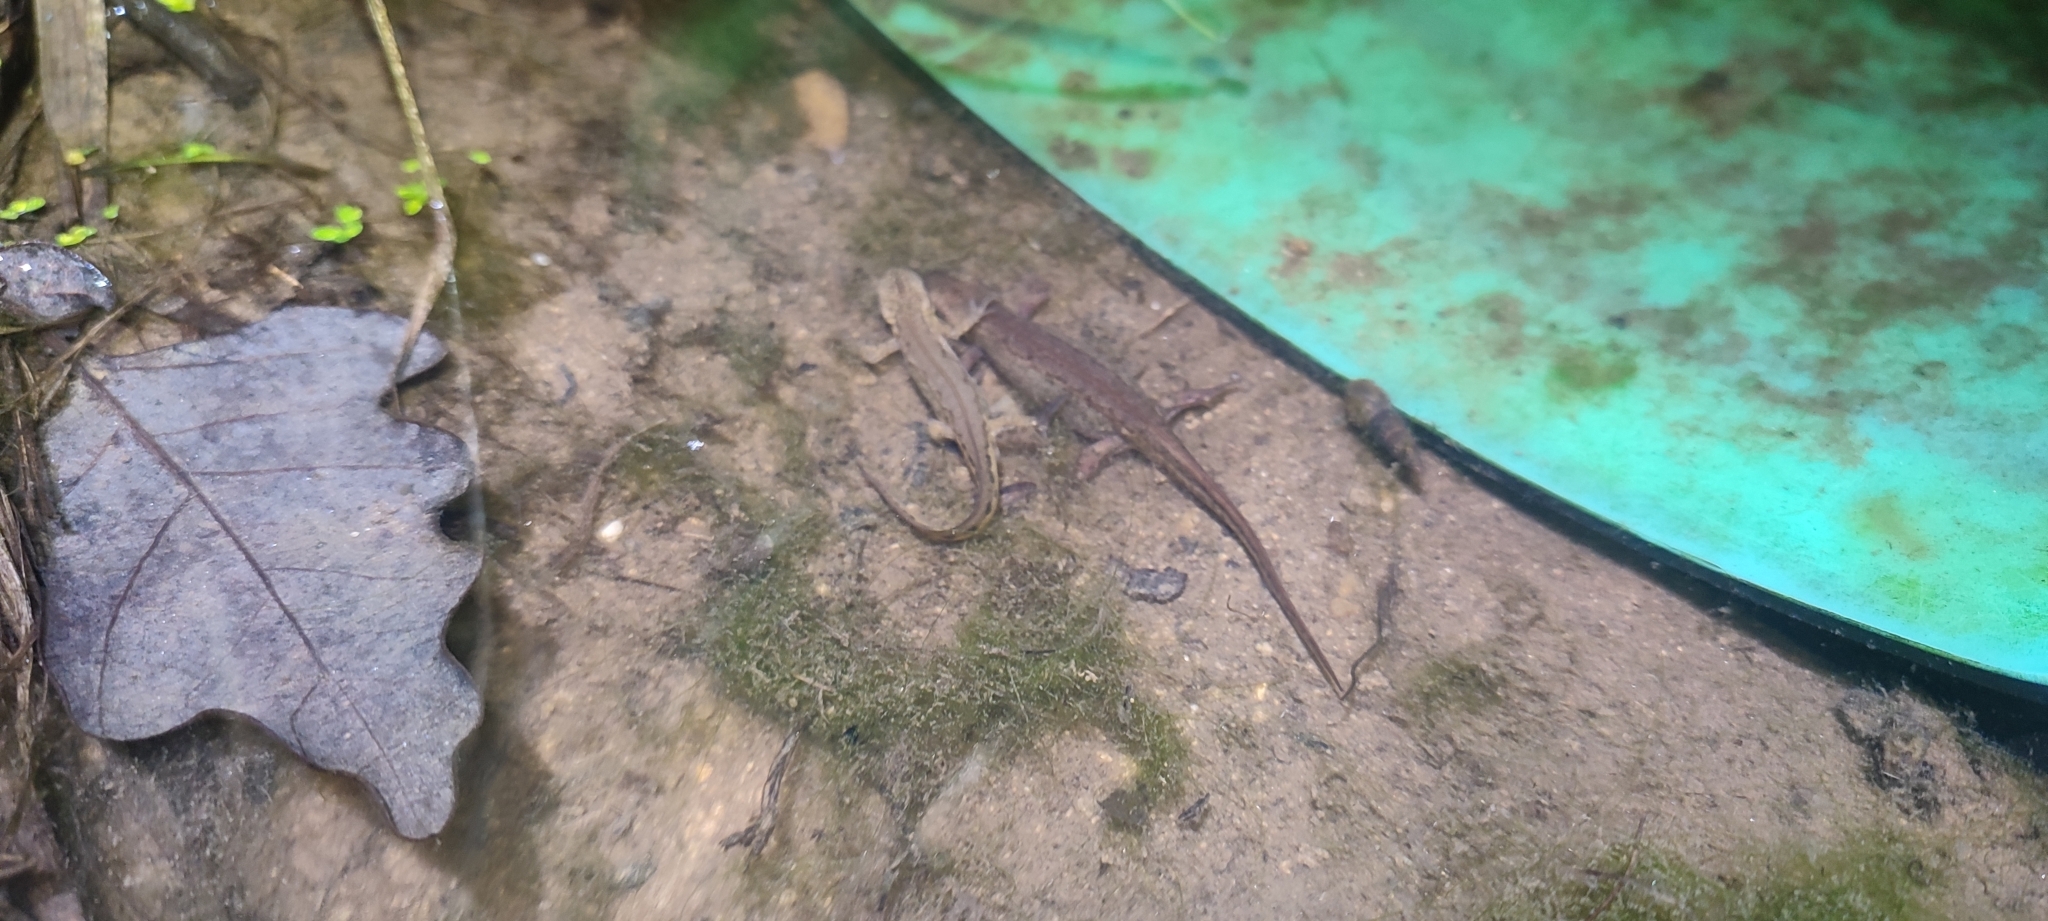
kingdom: Animalia
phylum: Chordata
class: Amphibia
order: Caudata
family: Salamandridae
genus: Lissotriton
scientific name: Lissotriton helveticus
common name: Palmate newt
